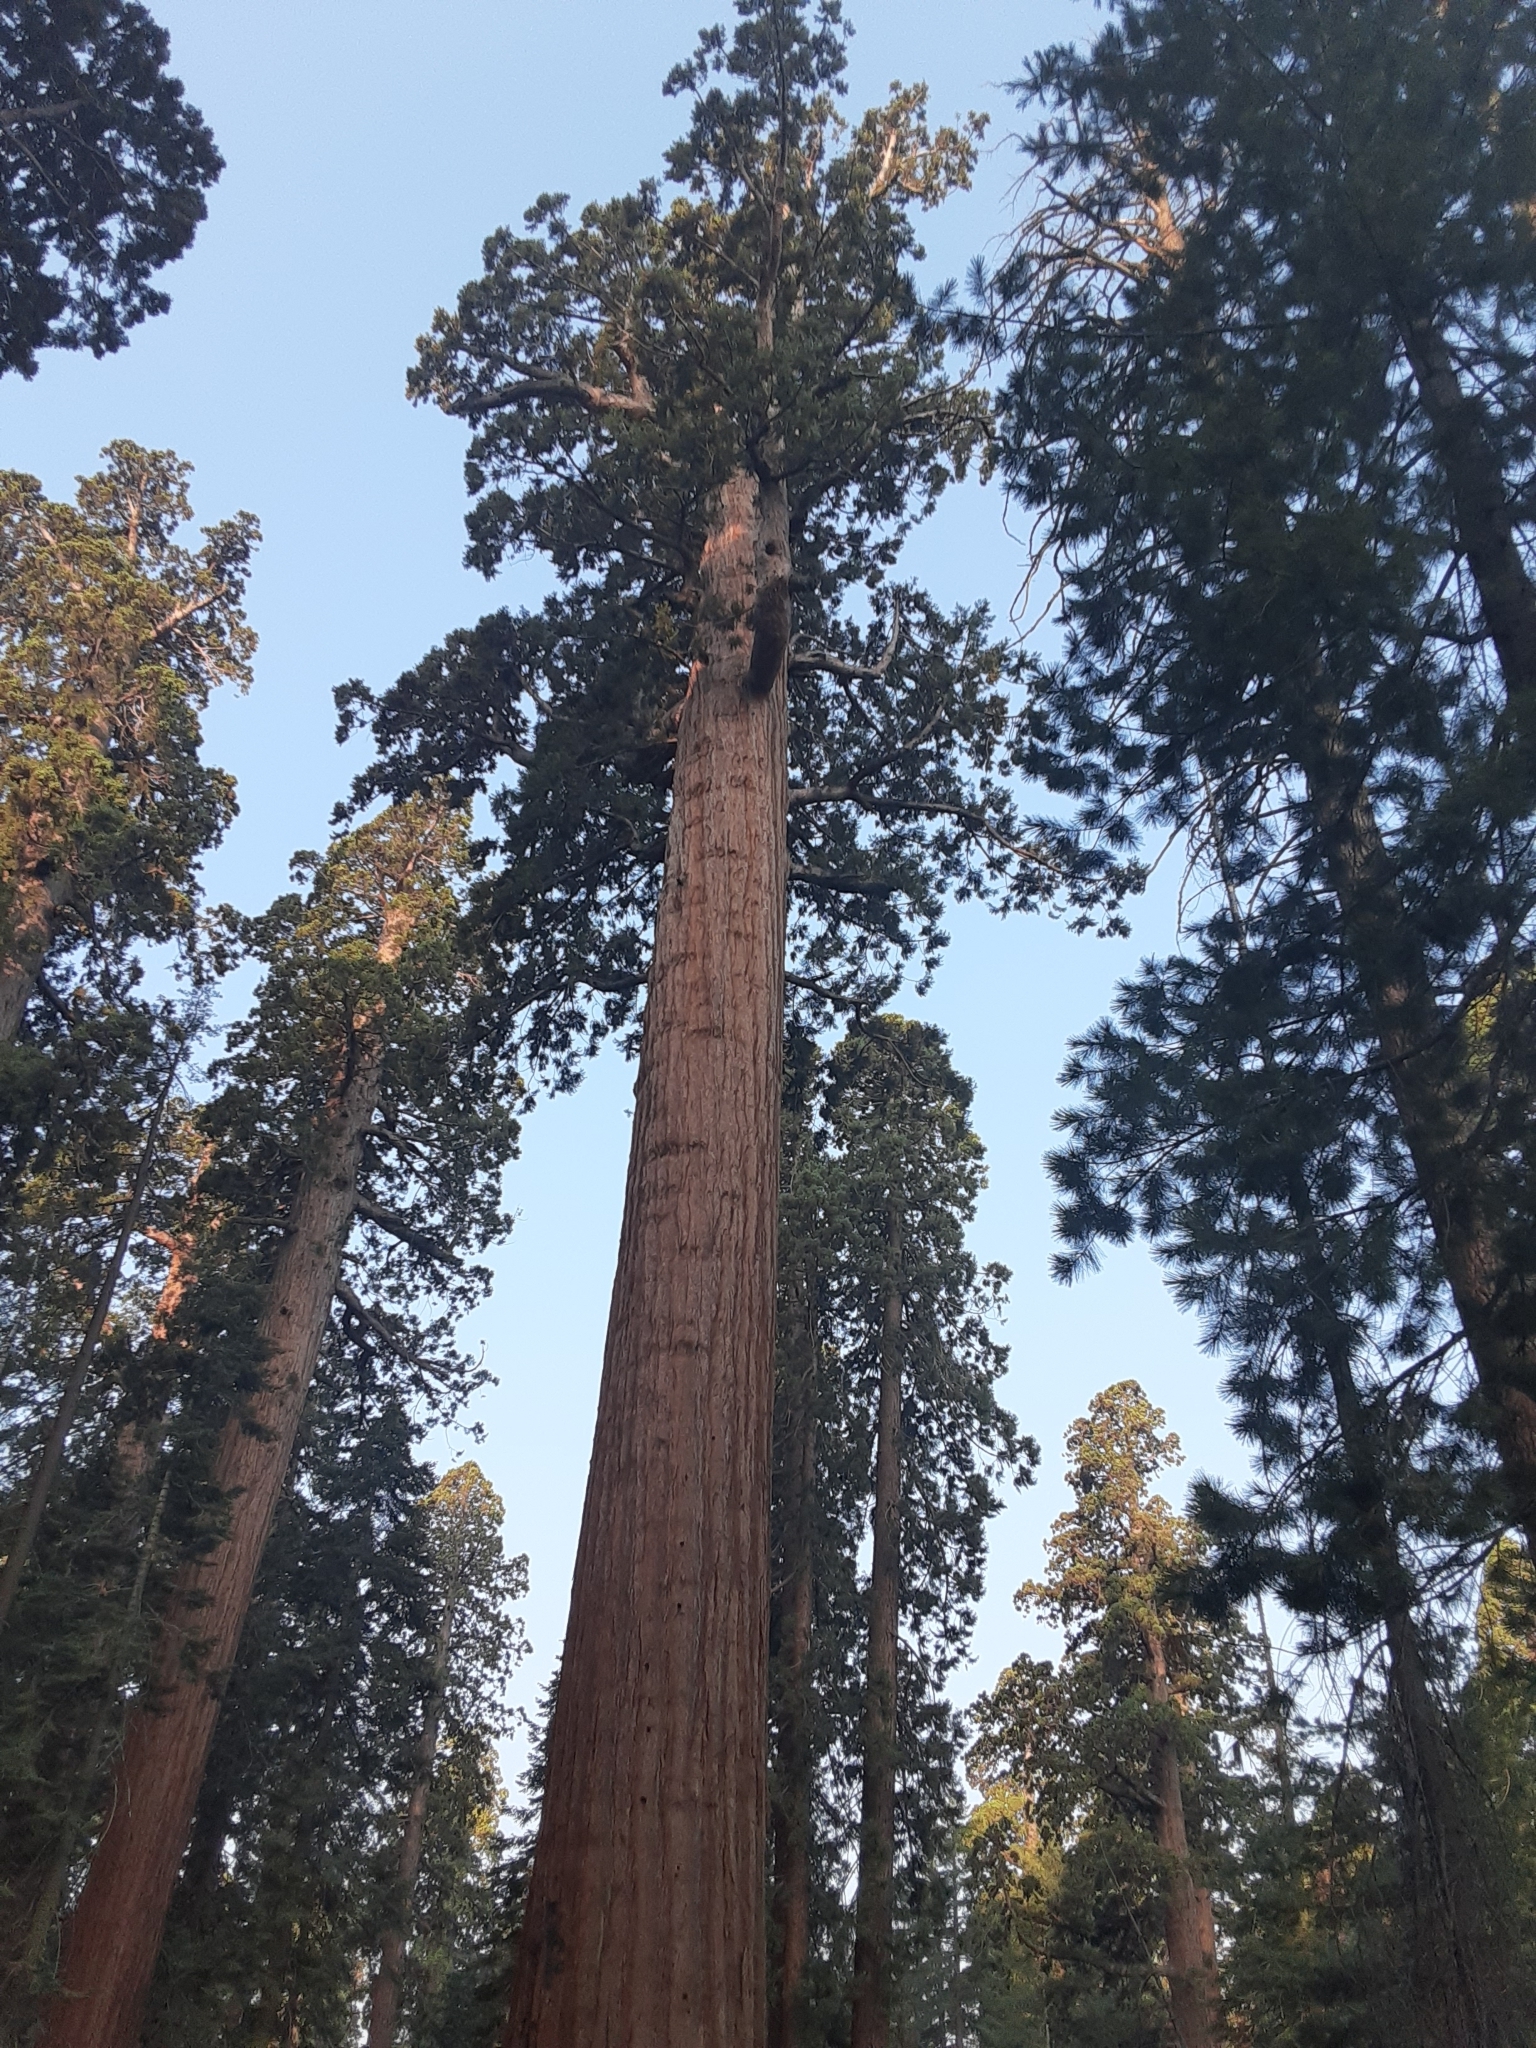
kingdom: Plantae
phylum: Tracheophyta
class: Pinopsida
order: Pinales
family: Cupressaceae
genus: Sequoiadendron
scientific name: Sequoiadendron giganteum
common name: Wellingtonia
